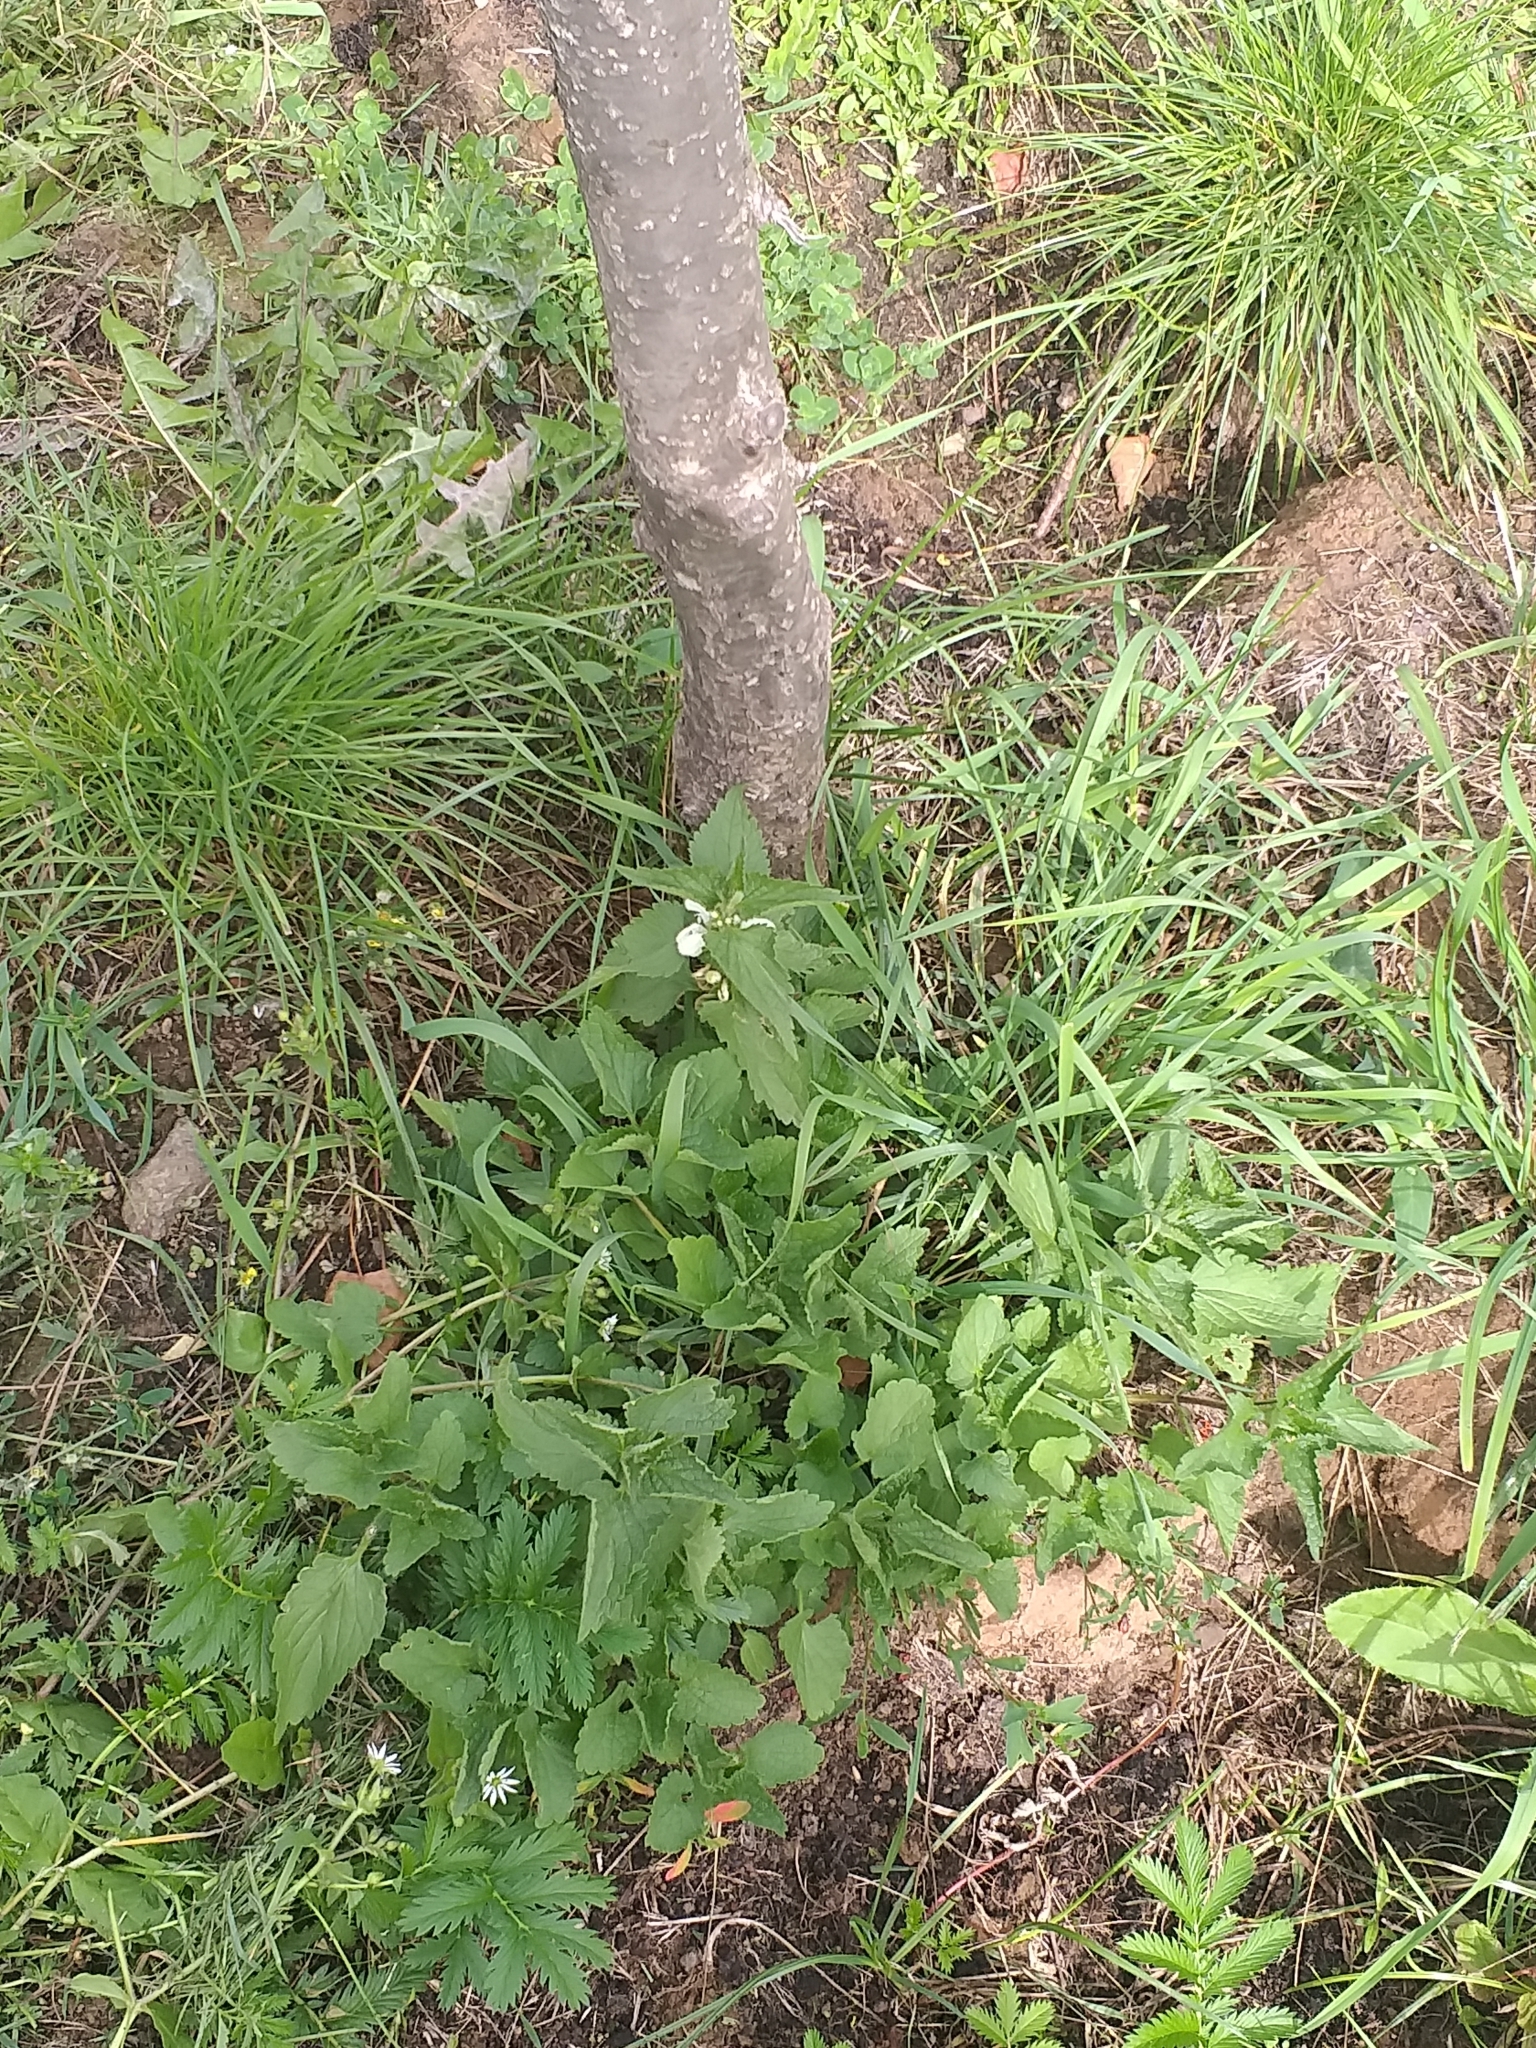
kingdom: Plantae
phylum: Tracheophyta
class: Magnoliopsida
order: Lamiales
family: Lamiaceae
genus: Lamium
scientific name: Lamium album
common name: White dead-nettle
